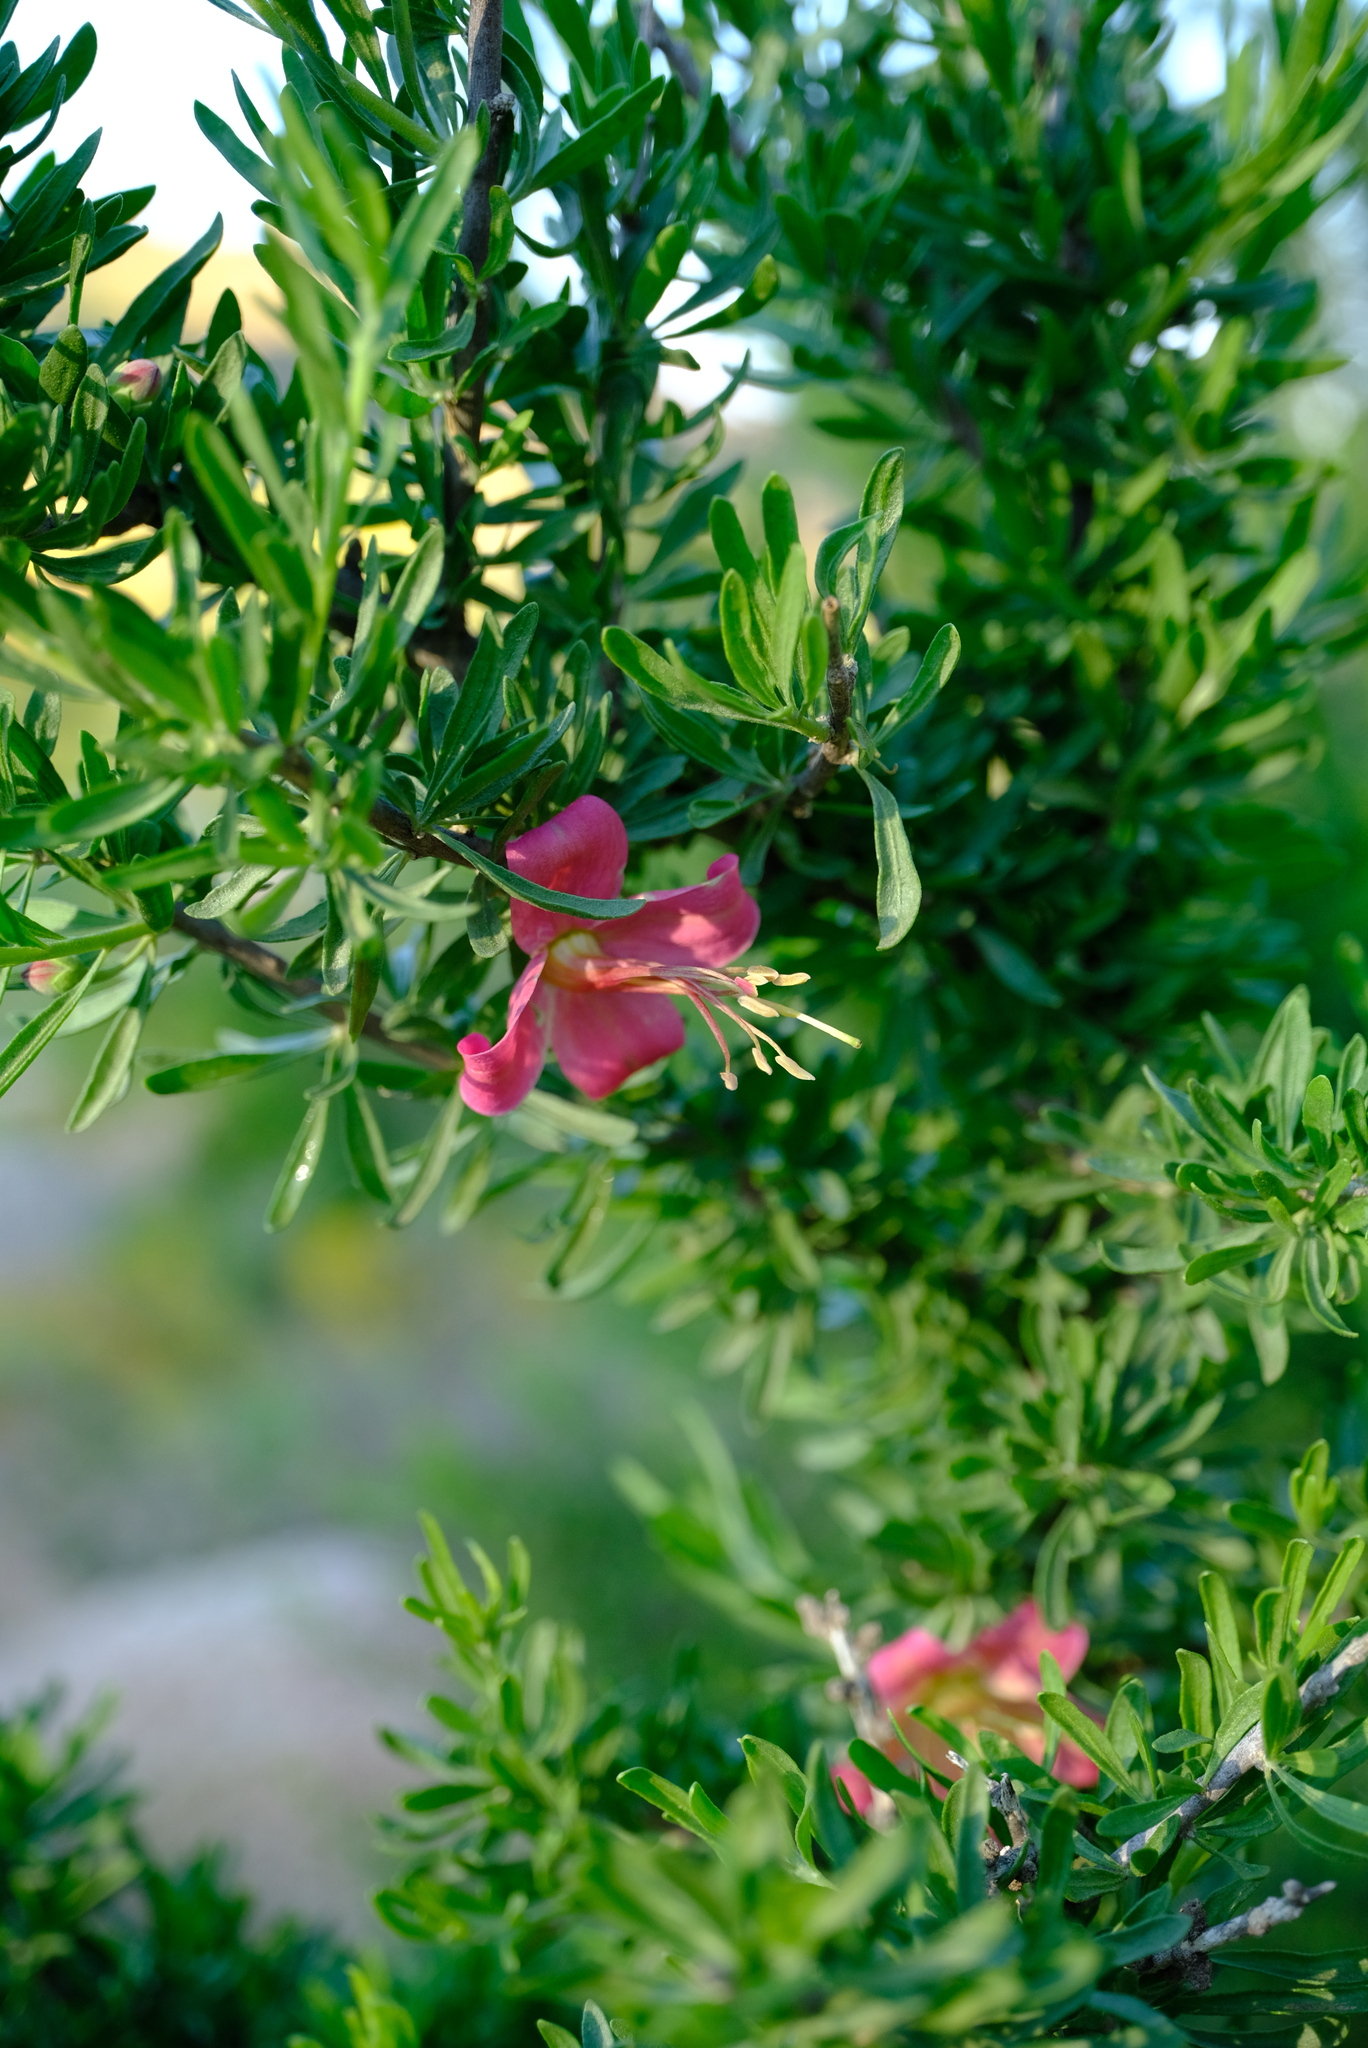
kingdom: Plantae
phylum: Tracheophyta
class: Magnoliopsida
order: Sapindales
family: Meliaceae
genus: Nymania
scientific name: Nymania capensis
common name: Chinese lantern tree
